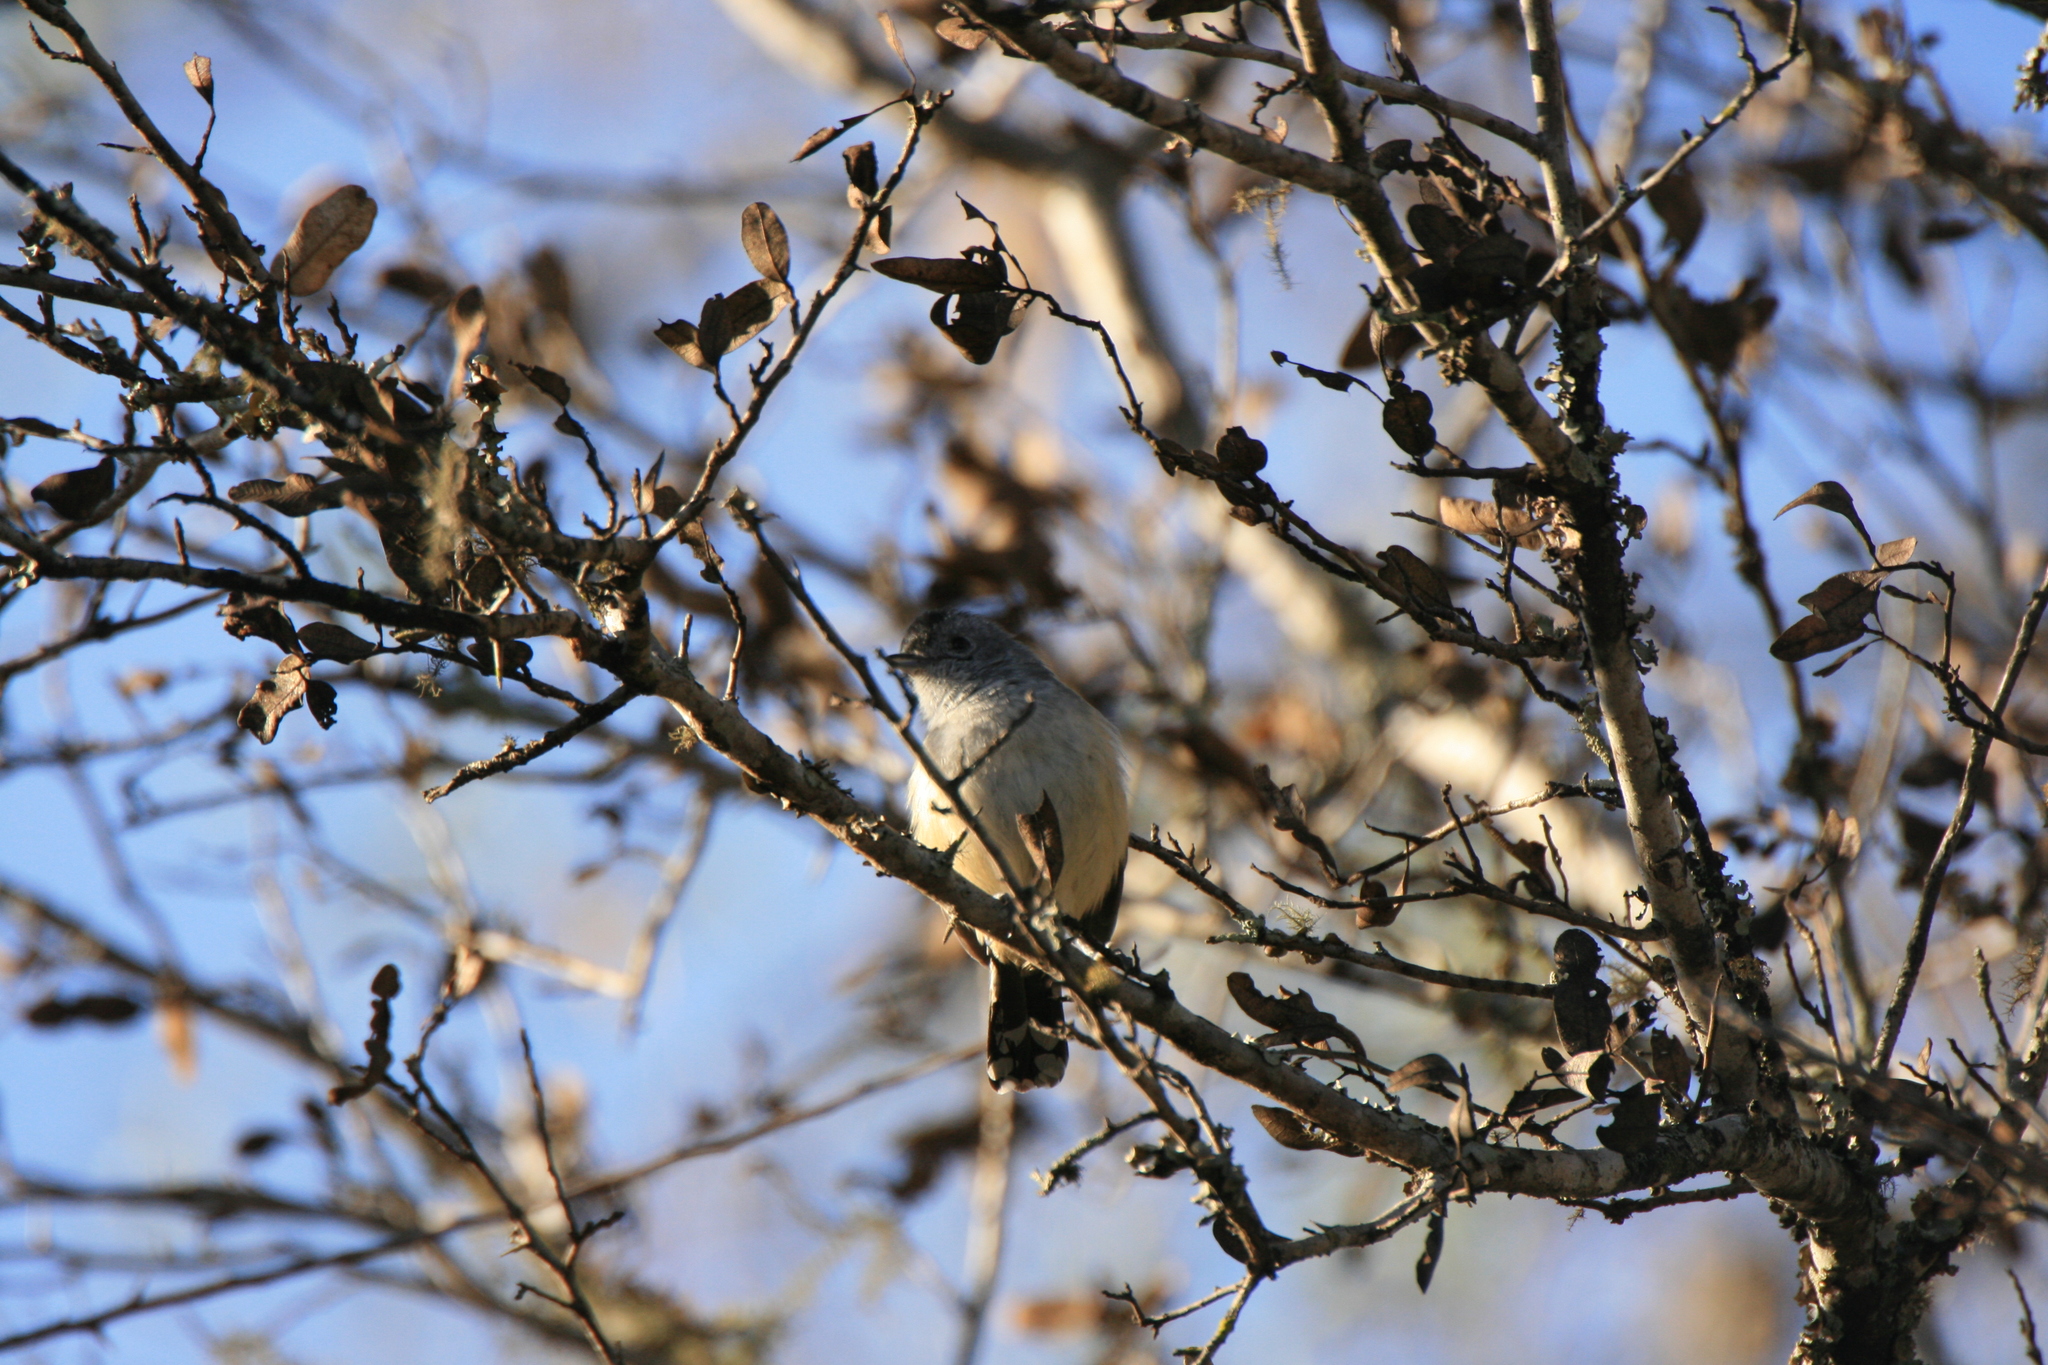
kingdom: Animalia
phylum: Chordata
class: Aves
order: Passeriformes
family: Thamnophilidae
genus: Thamnophilus
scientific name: Thamnophilus caerulescens
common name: Variable antshrike
